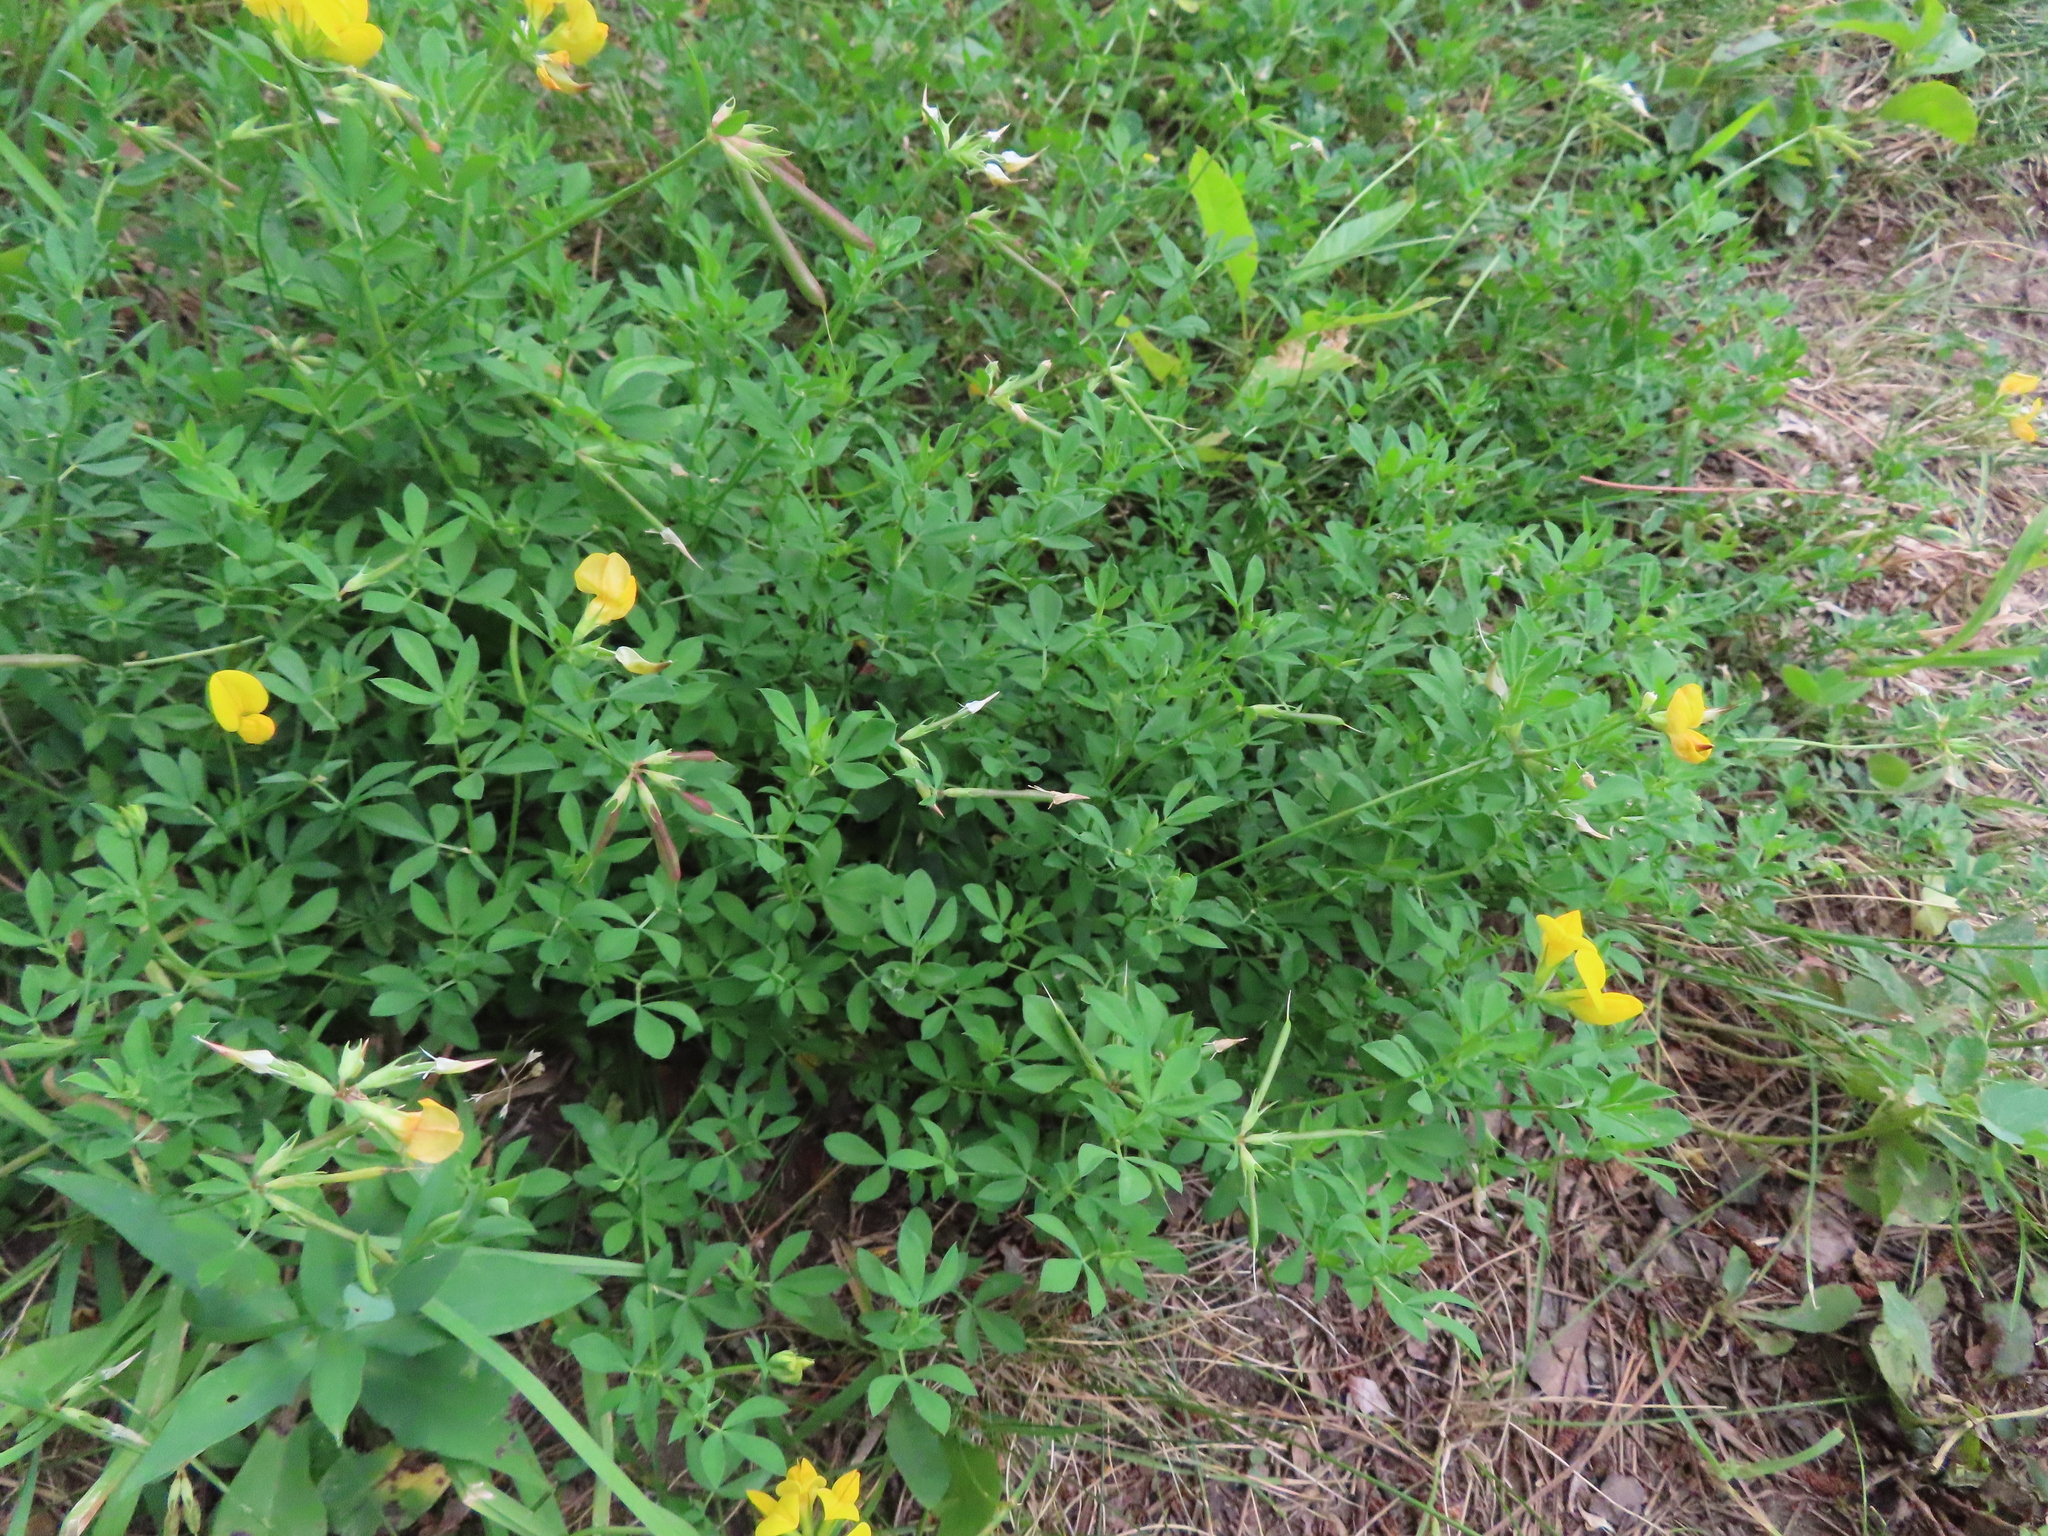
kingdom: Plantae
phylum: Tracheophyta
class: Magnoliopsida
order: Fabales
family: Fabaceae
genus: Lotus
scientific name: Lotus corniculatus
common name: Common bird's-foot-trefoil
